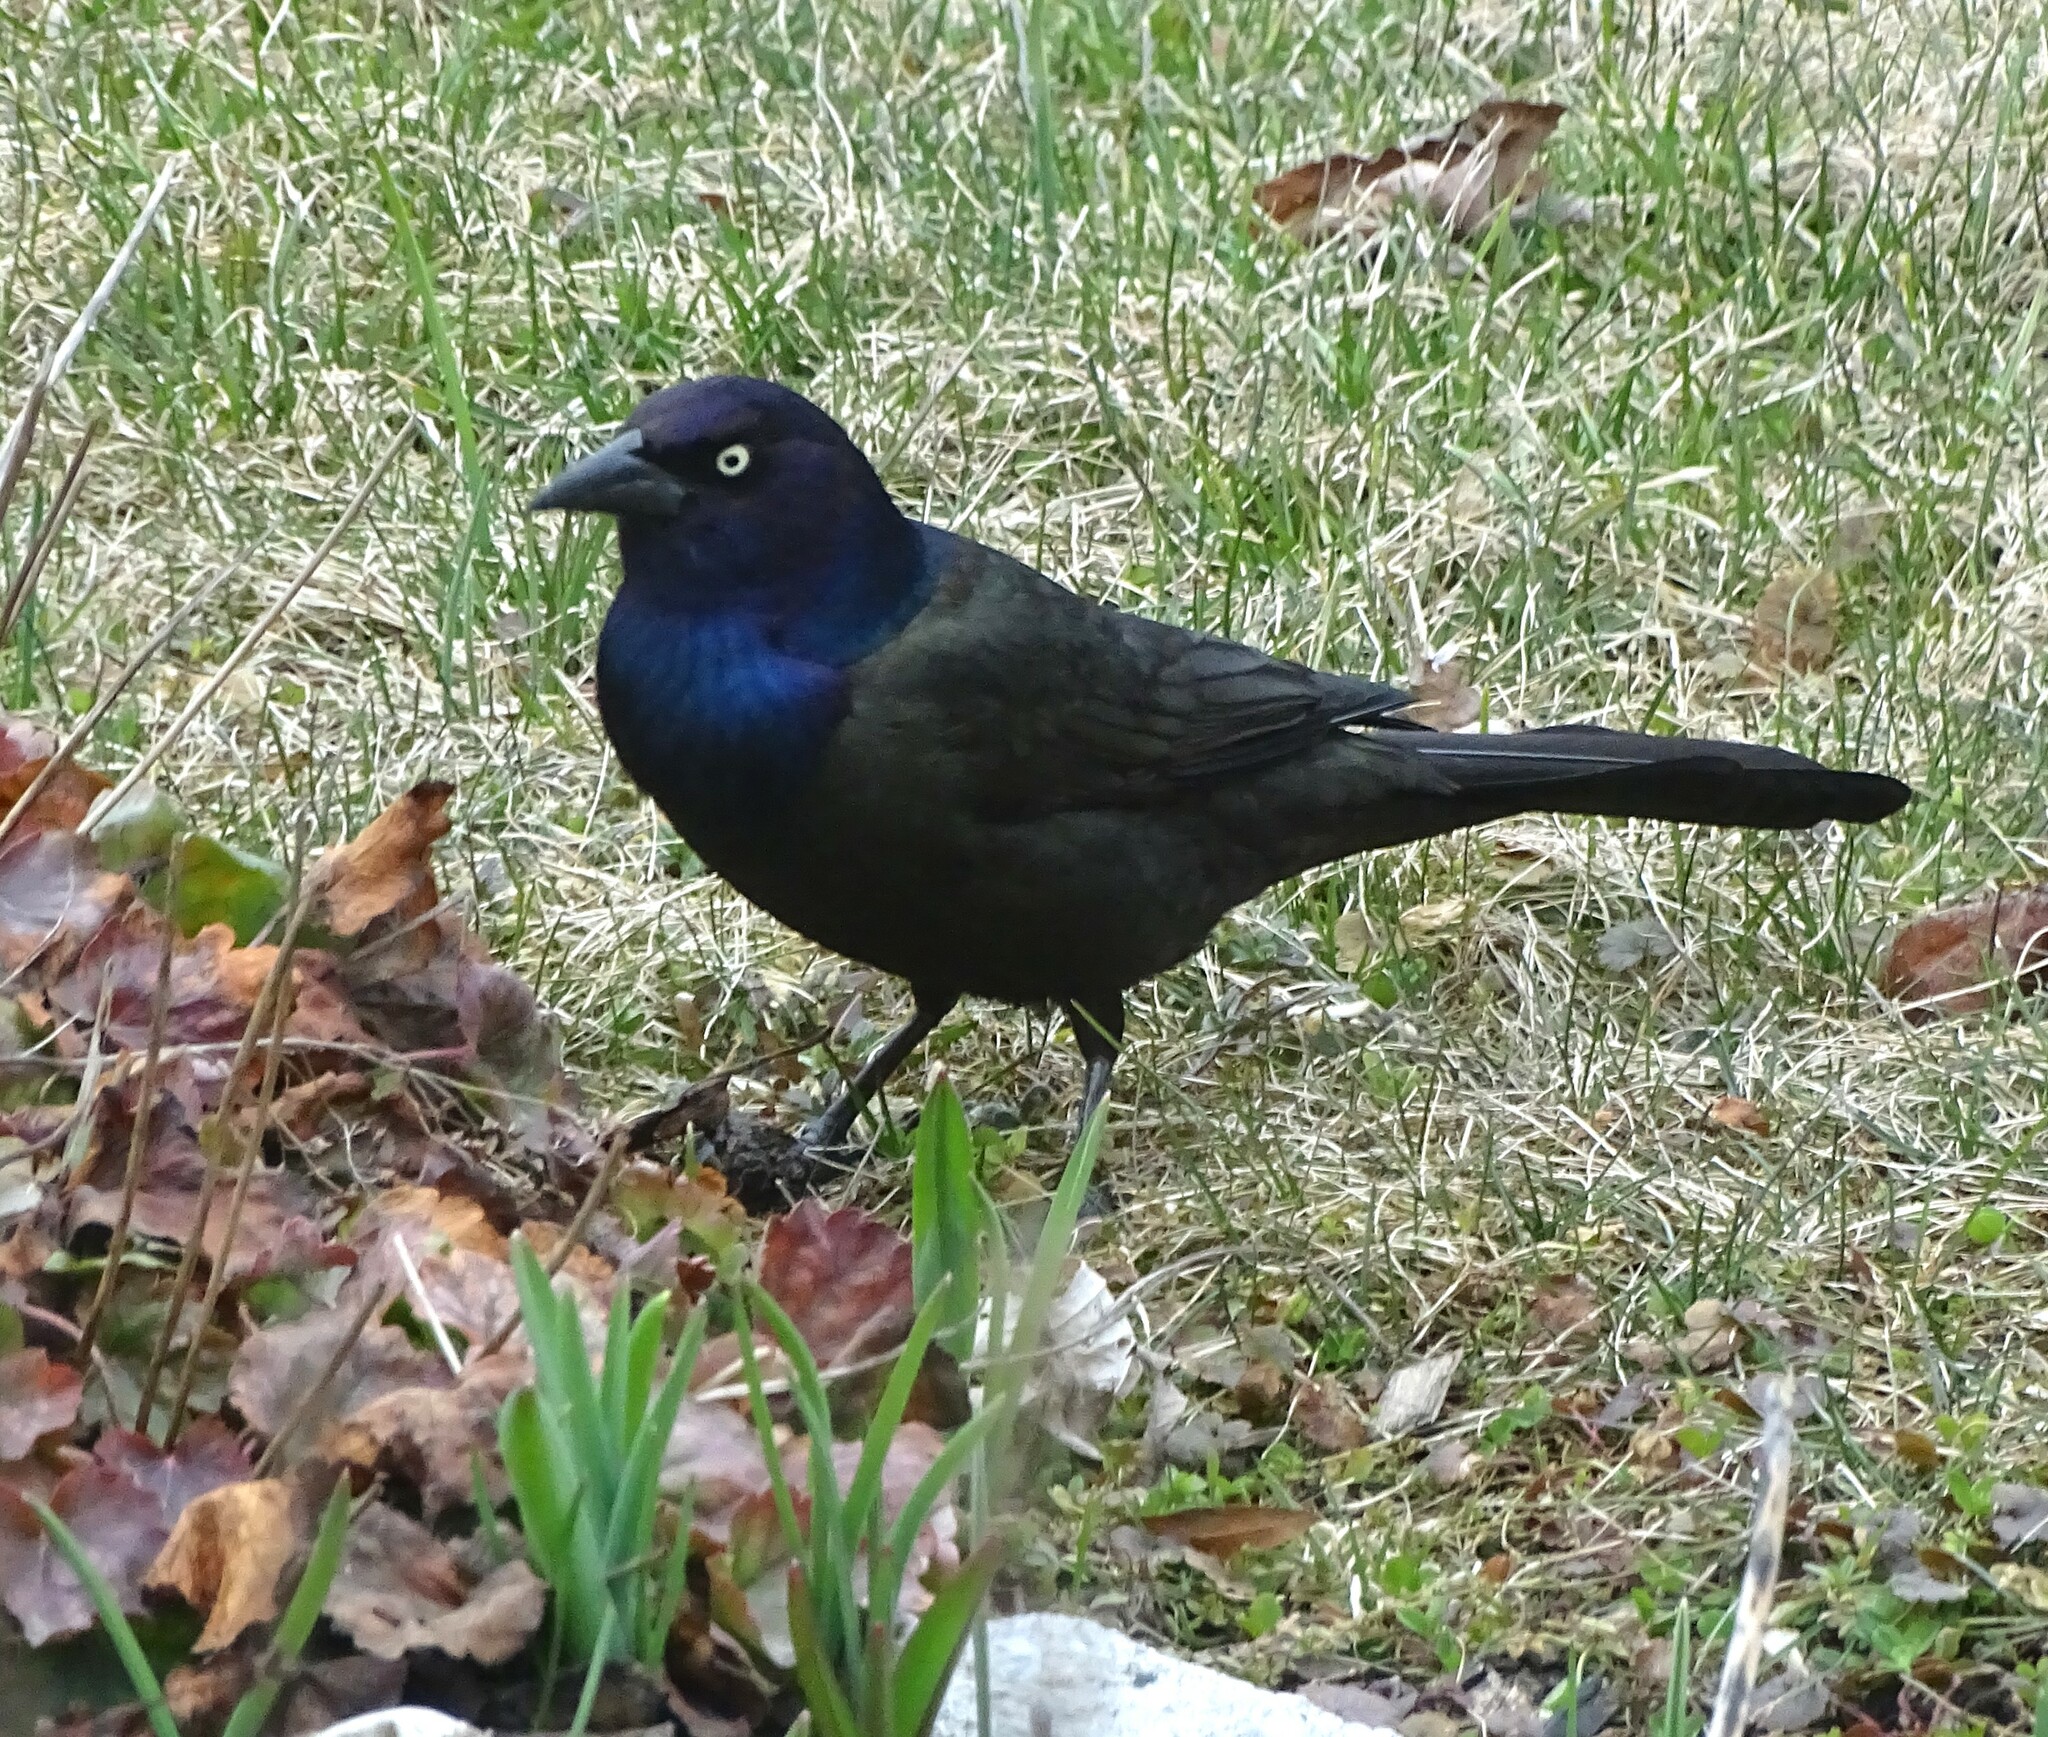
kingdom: Animalia
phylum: Chordata
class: Aves
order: Passeriformes
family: Icteridae
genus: Quiscalus
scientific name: Quiscalus quiscula
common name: Common grackle
